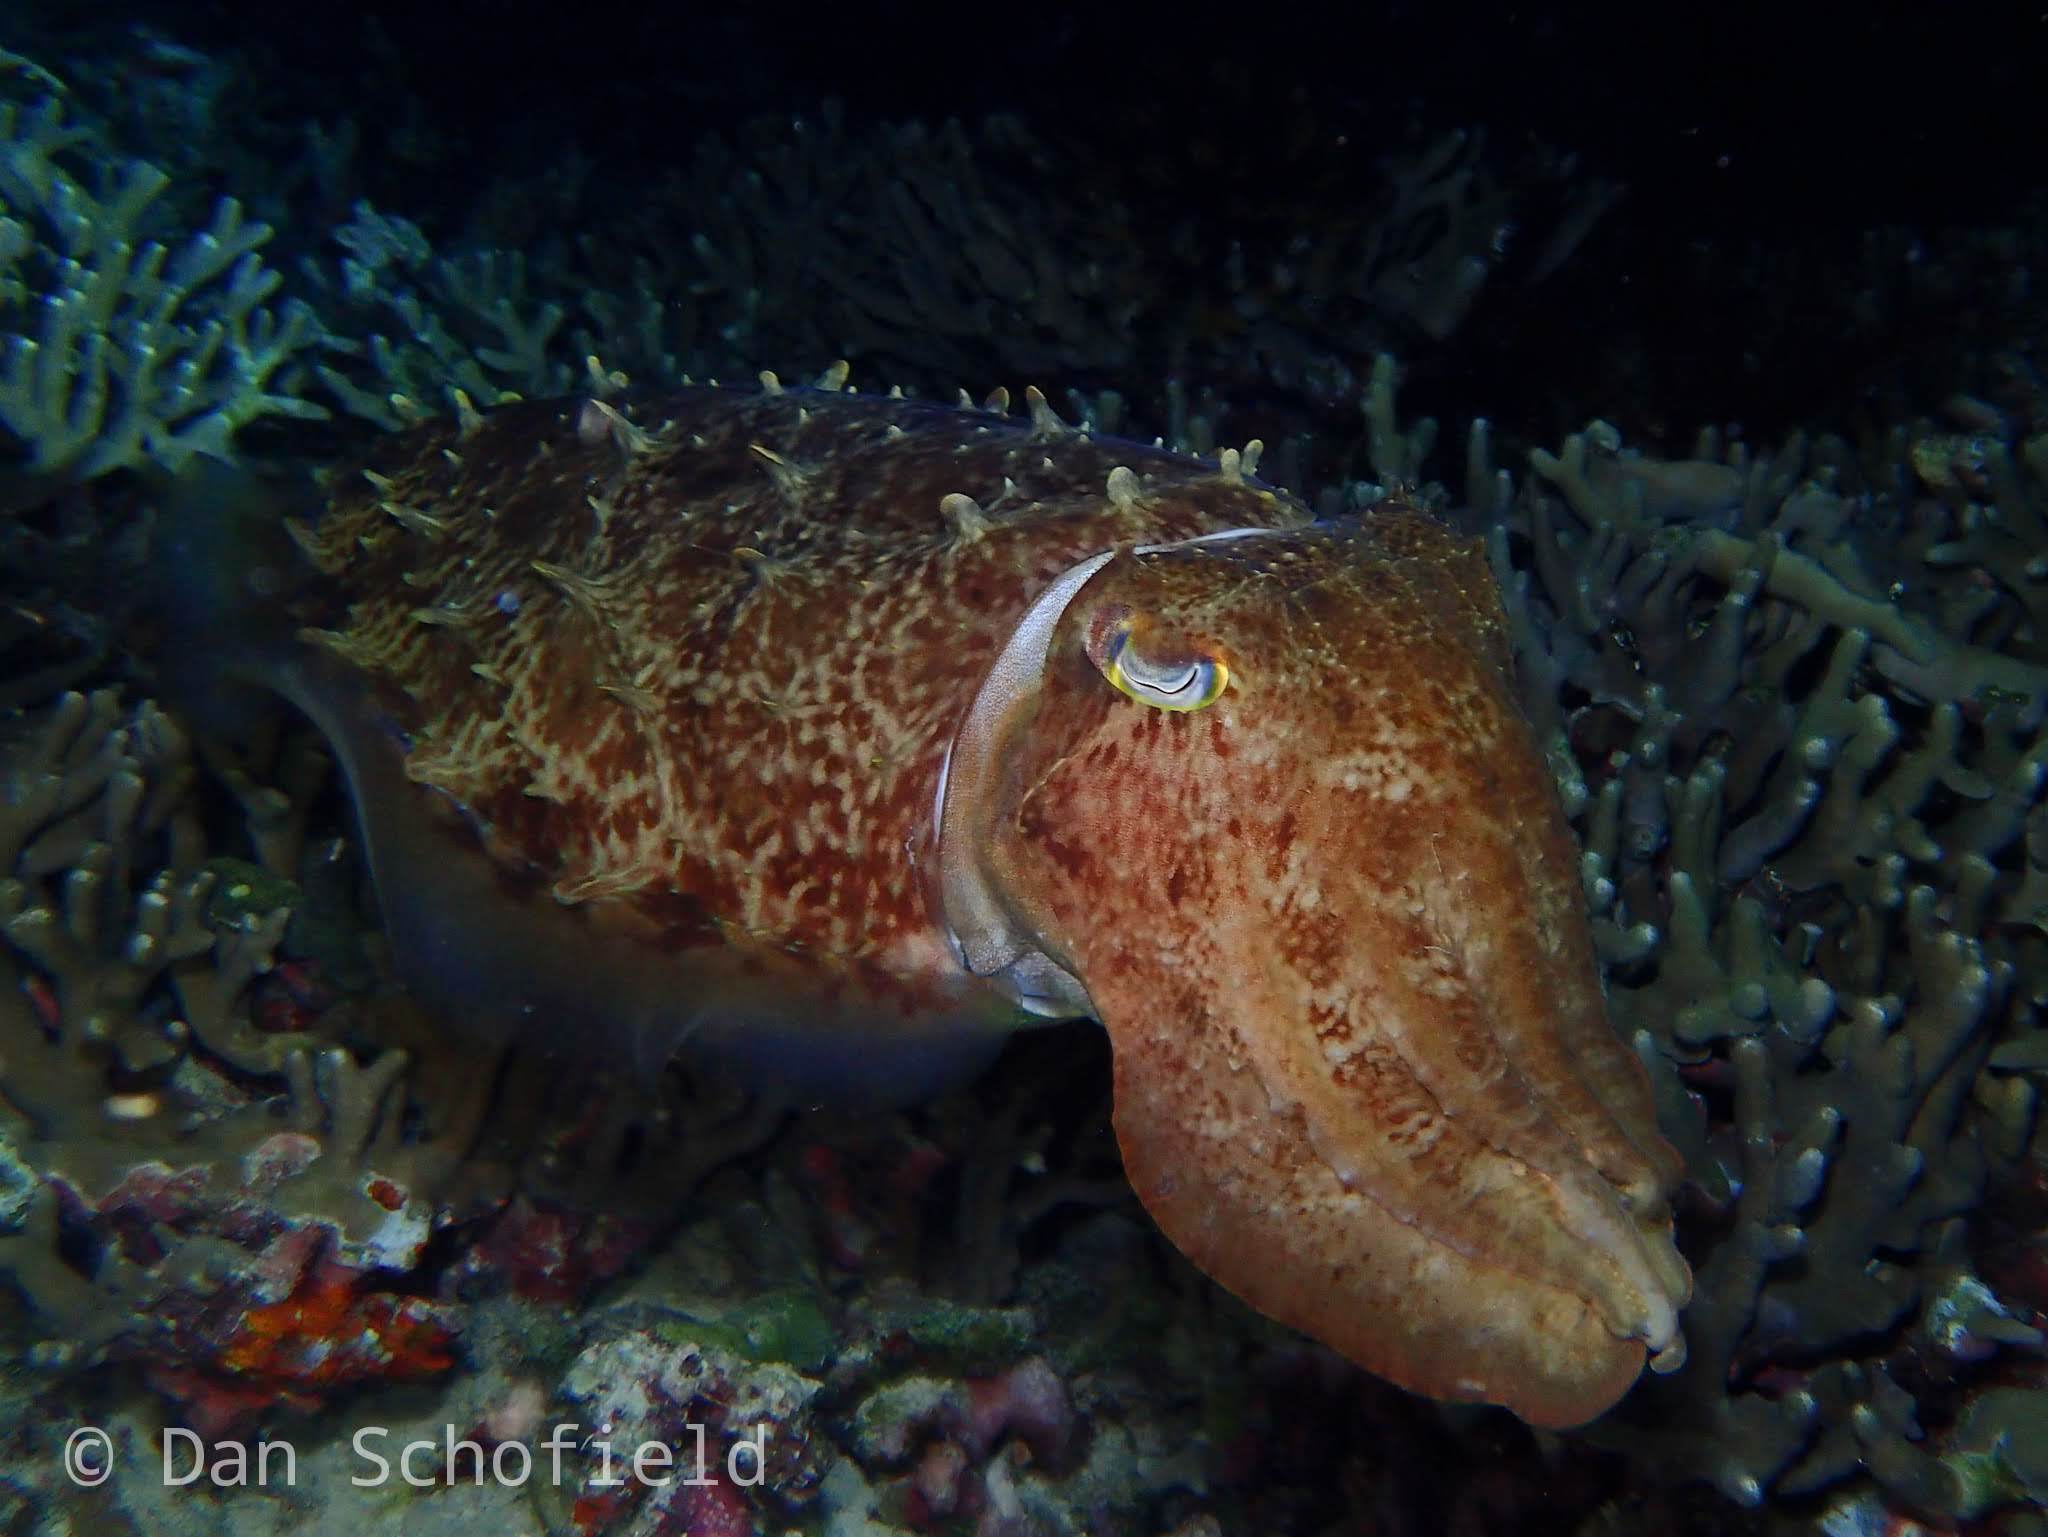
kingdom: Animalia
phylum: Mollusca
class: Cephalopoda
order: Sepiida
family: Sepiidae
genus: Ascarosepion
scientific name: Ascarosepion latimanus
